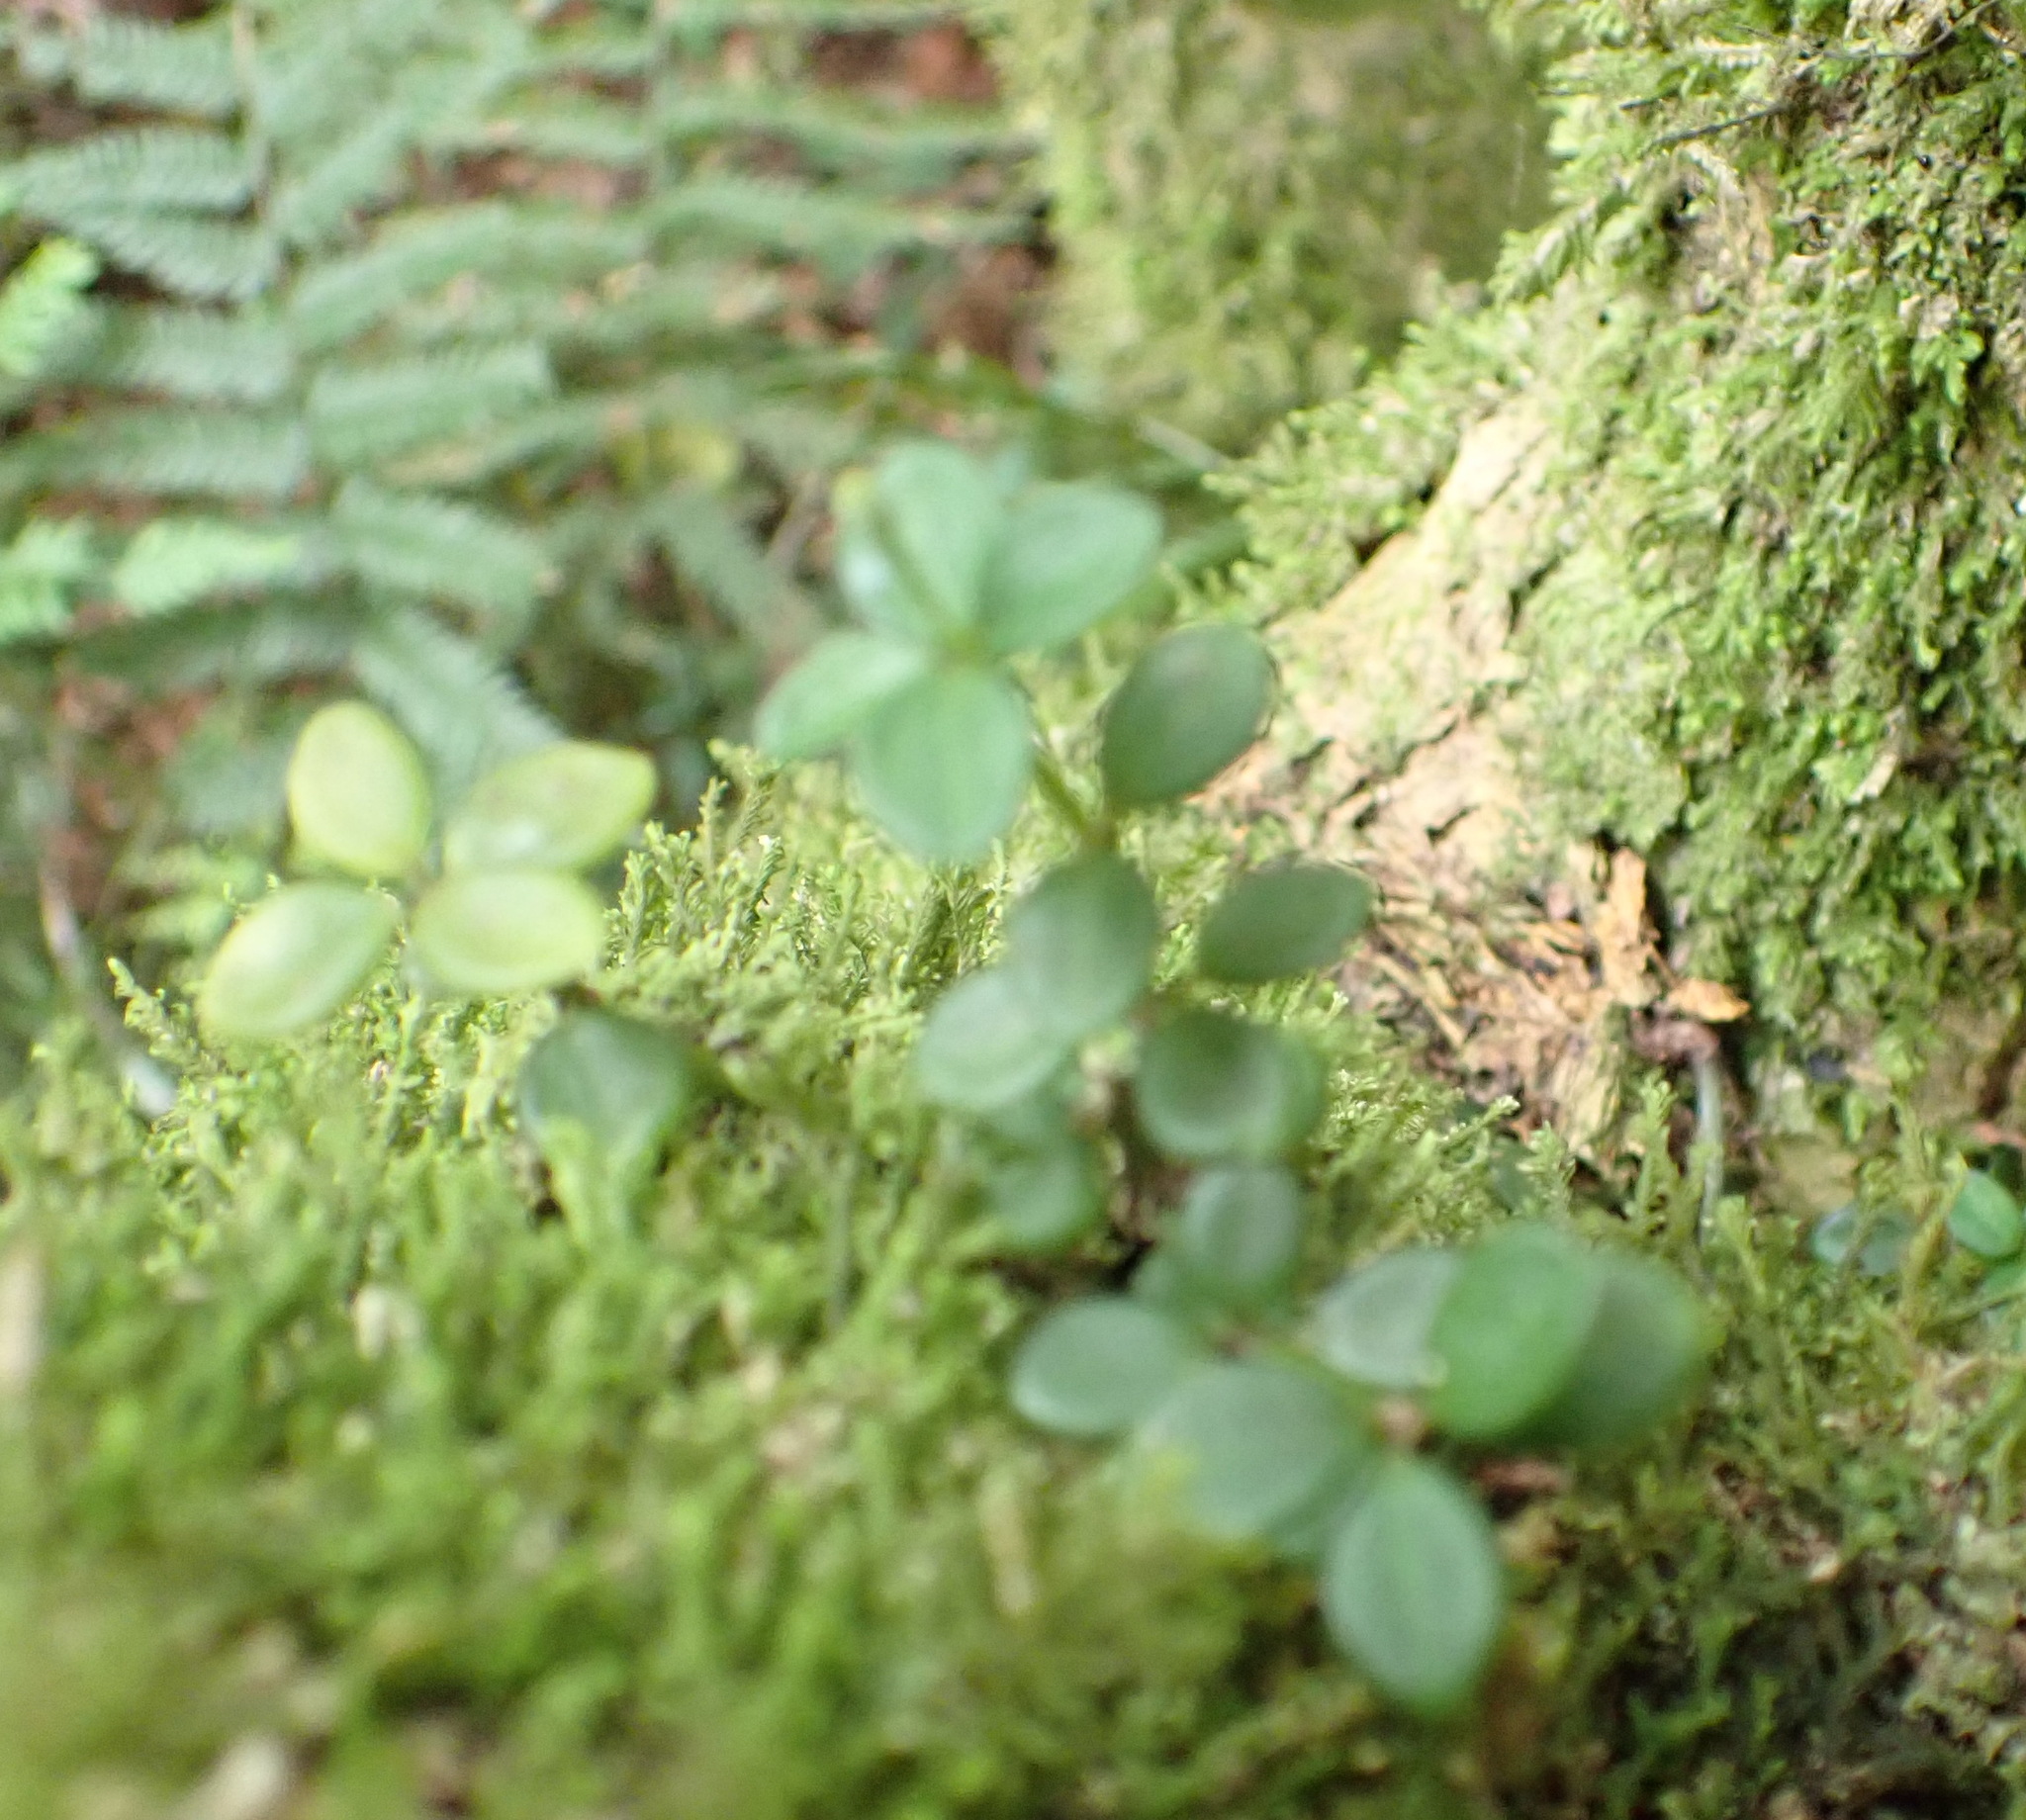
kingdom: Plantae
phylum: Tracheophyta
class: Magnoliopsida
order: Piperales
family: Piperaceae
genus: Peperomia
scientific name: Peperomia tetraphylla
